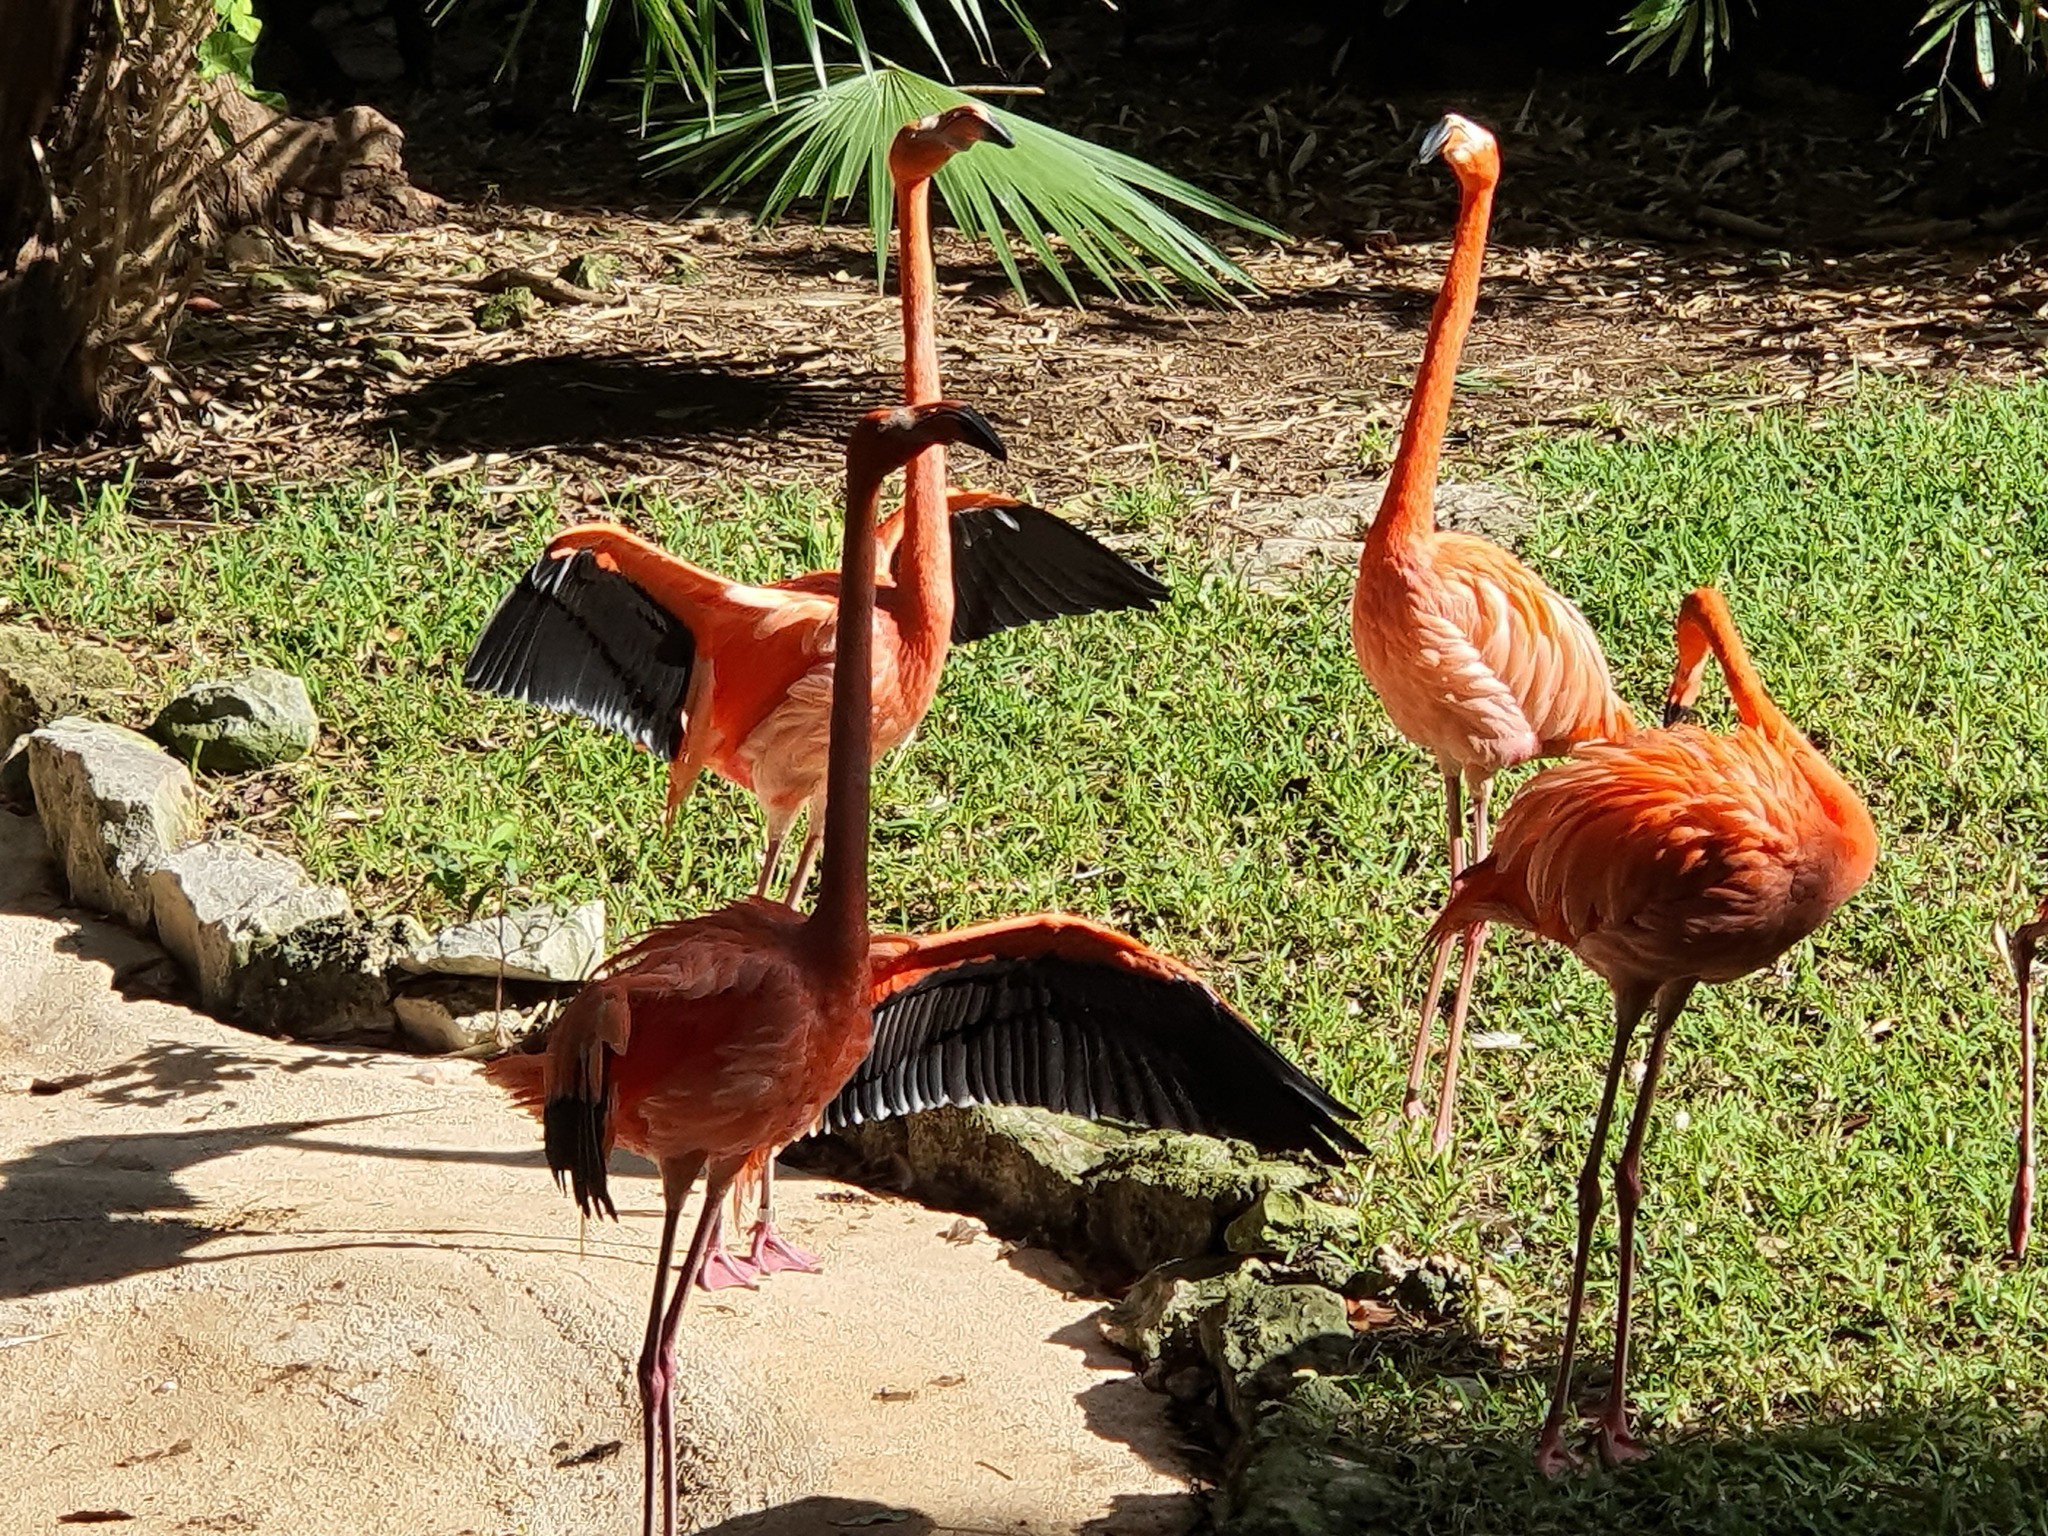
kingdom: Animalia
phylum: Chordata
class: Aves
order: Phoenicopteriformes
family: Phoenicopteridae
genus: Phoenicopterus
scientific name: Phoenicopterus ruber
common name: American flamingo
